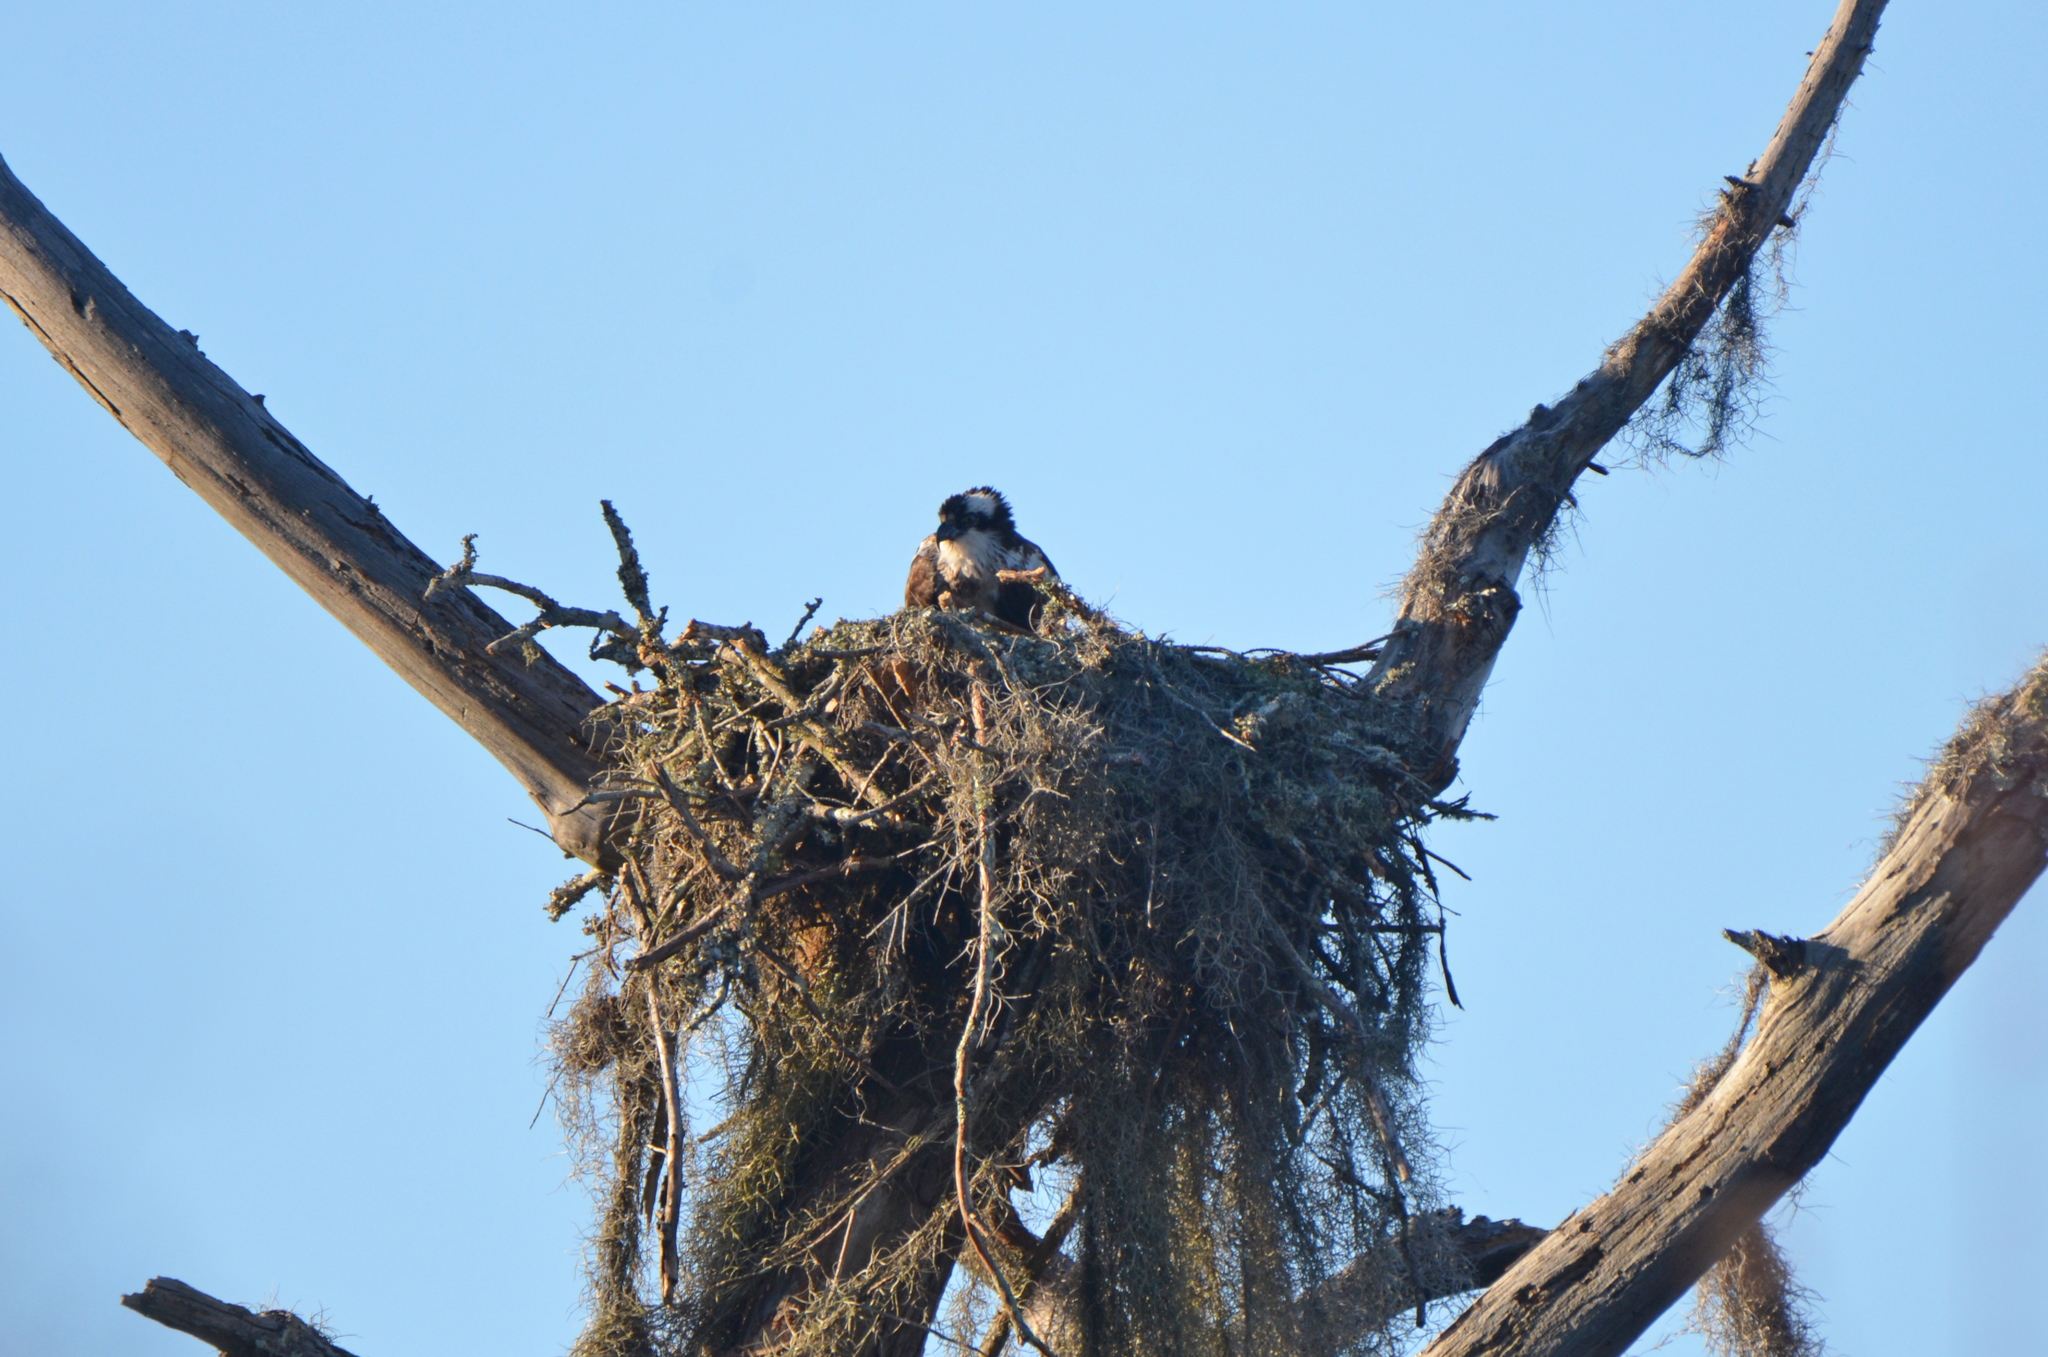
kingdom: Animalia
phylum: Chordata
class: Aves
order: Accipitriformes
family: Pandionidae
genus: Pandion
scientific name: Pandion haliaetus
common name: Osprey
